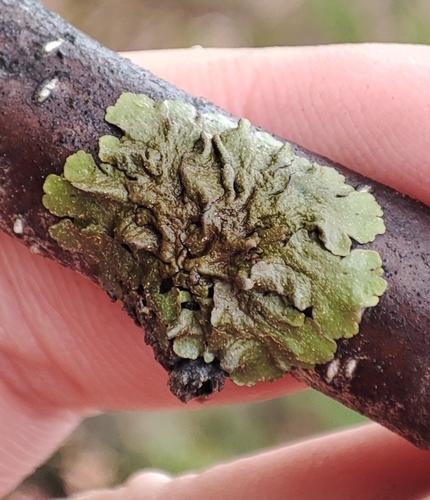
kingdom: Fungi
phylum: Ascomycota
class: Lecanoromycetes
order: Lecanorales
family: Parmeliaceae
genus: Melanohalea
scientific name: Melanohalea
